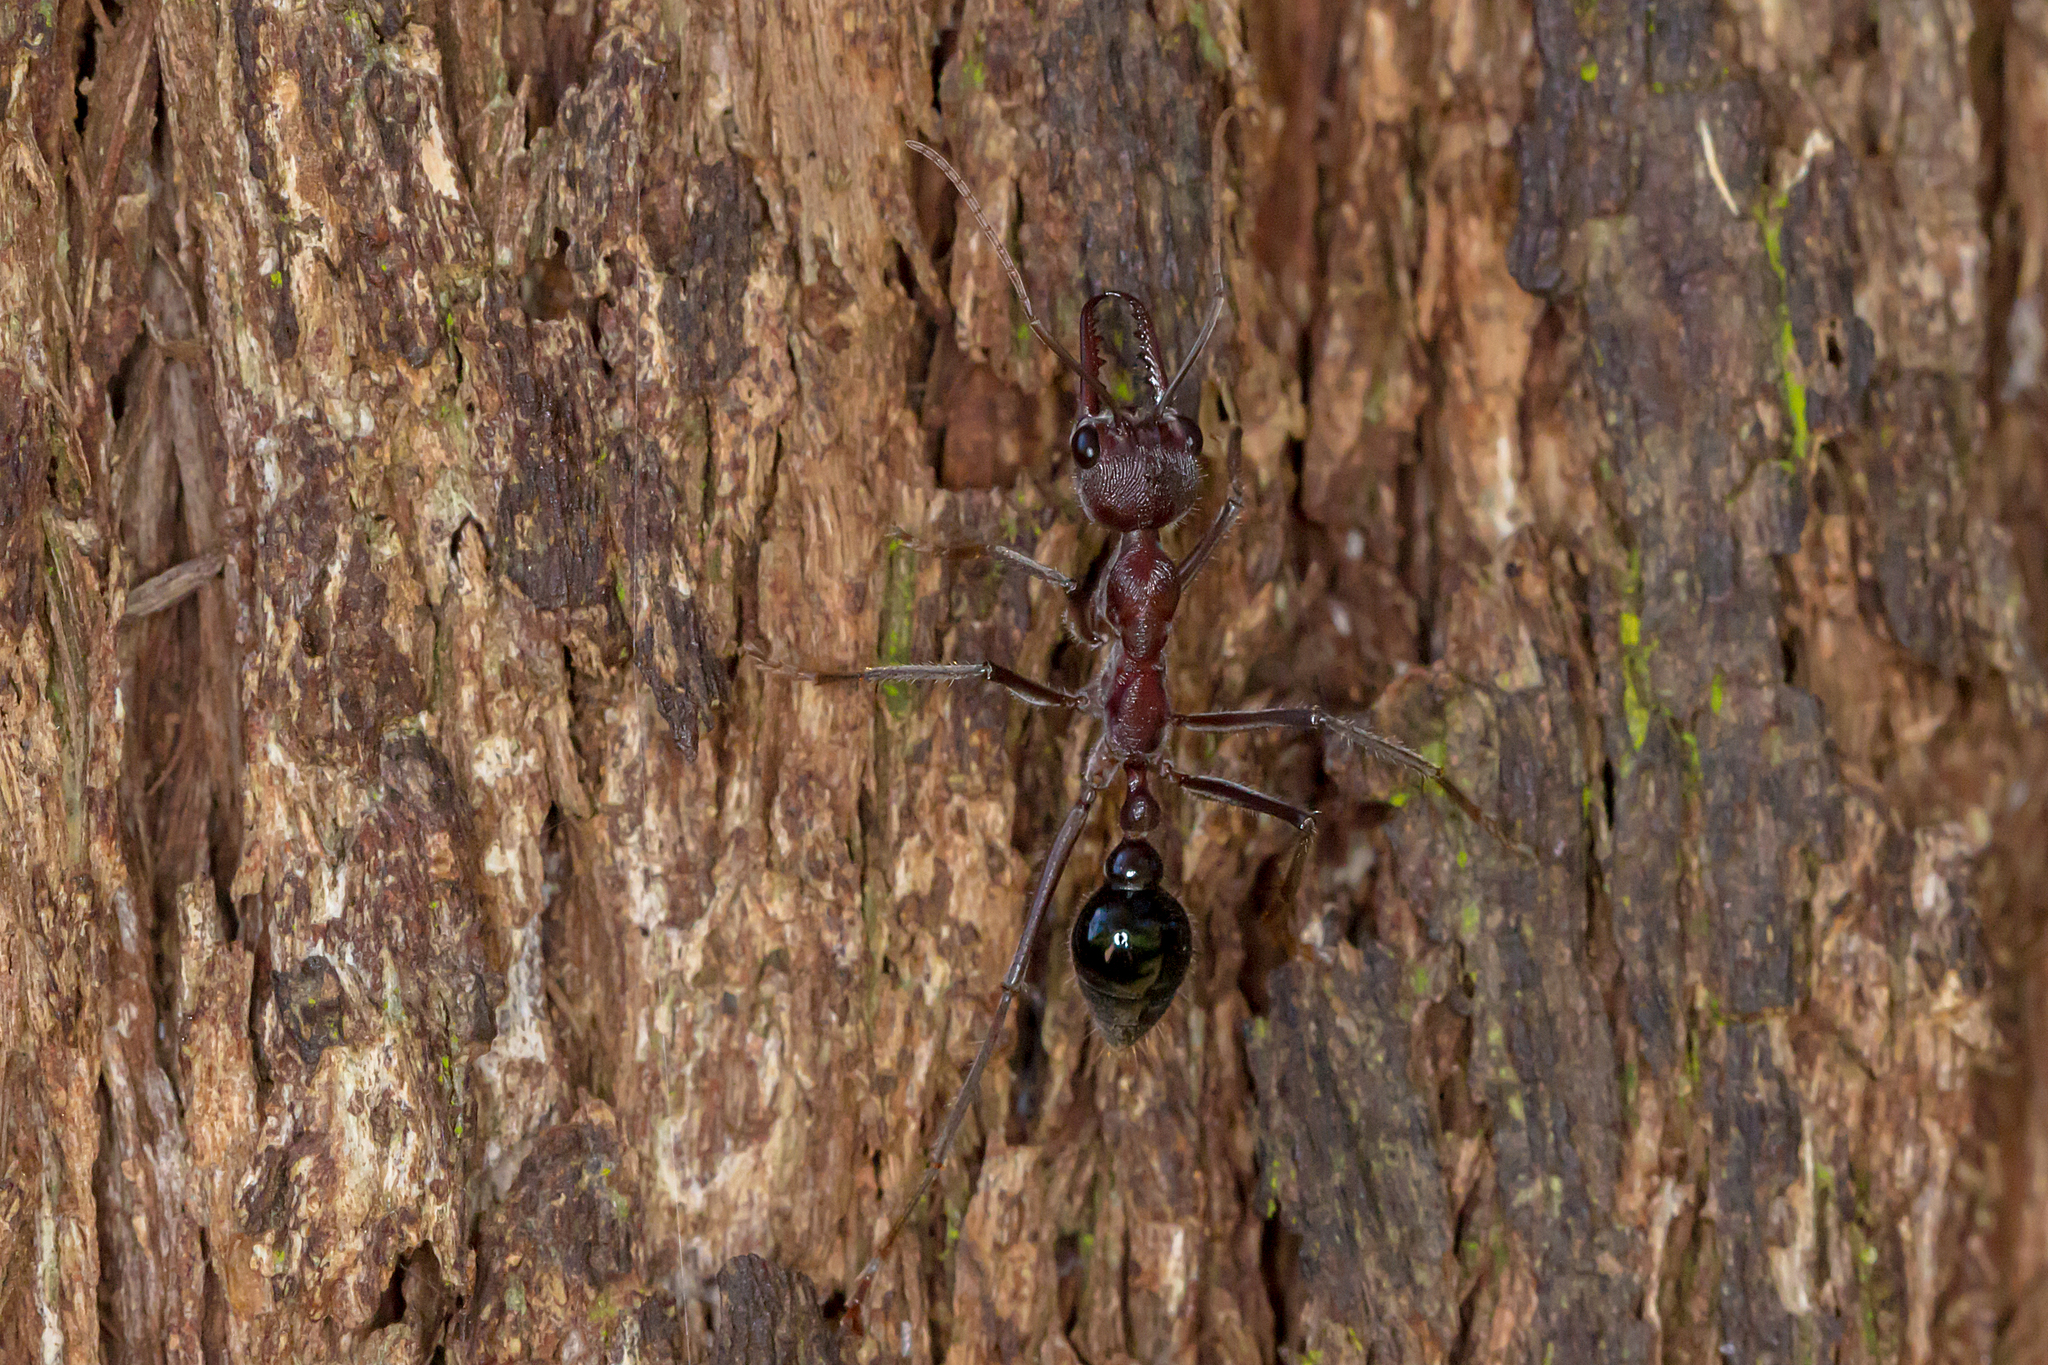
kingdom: Animalia
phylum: Arthropoda
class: Insecta
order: Hymenoptera
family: Formicidae
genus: Myrmecia
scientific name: Myrmecia simillima
